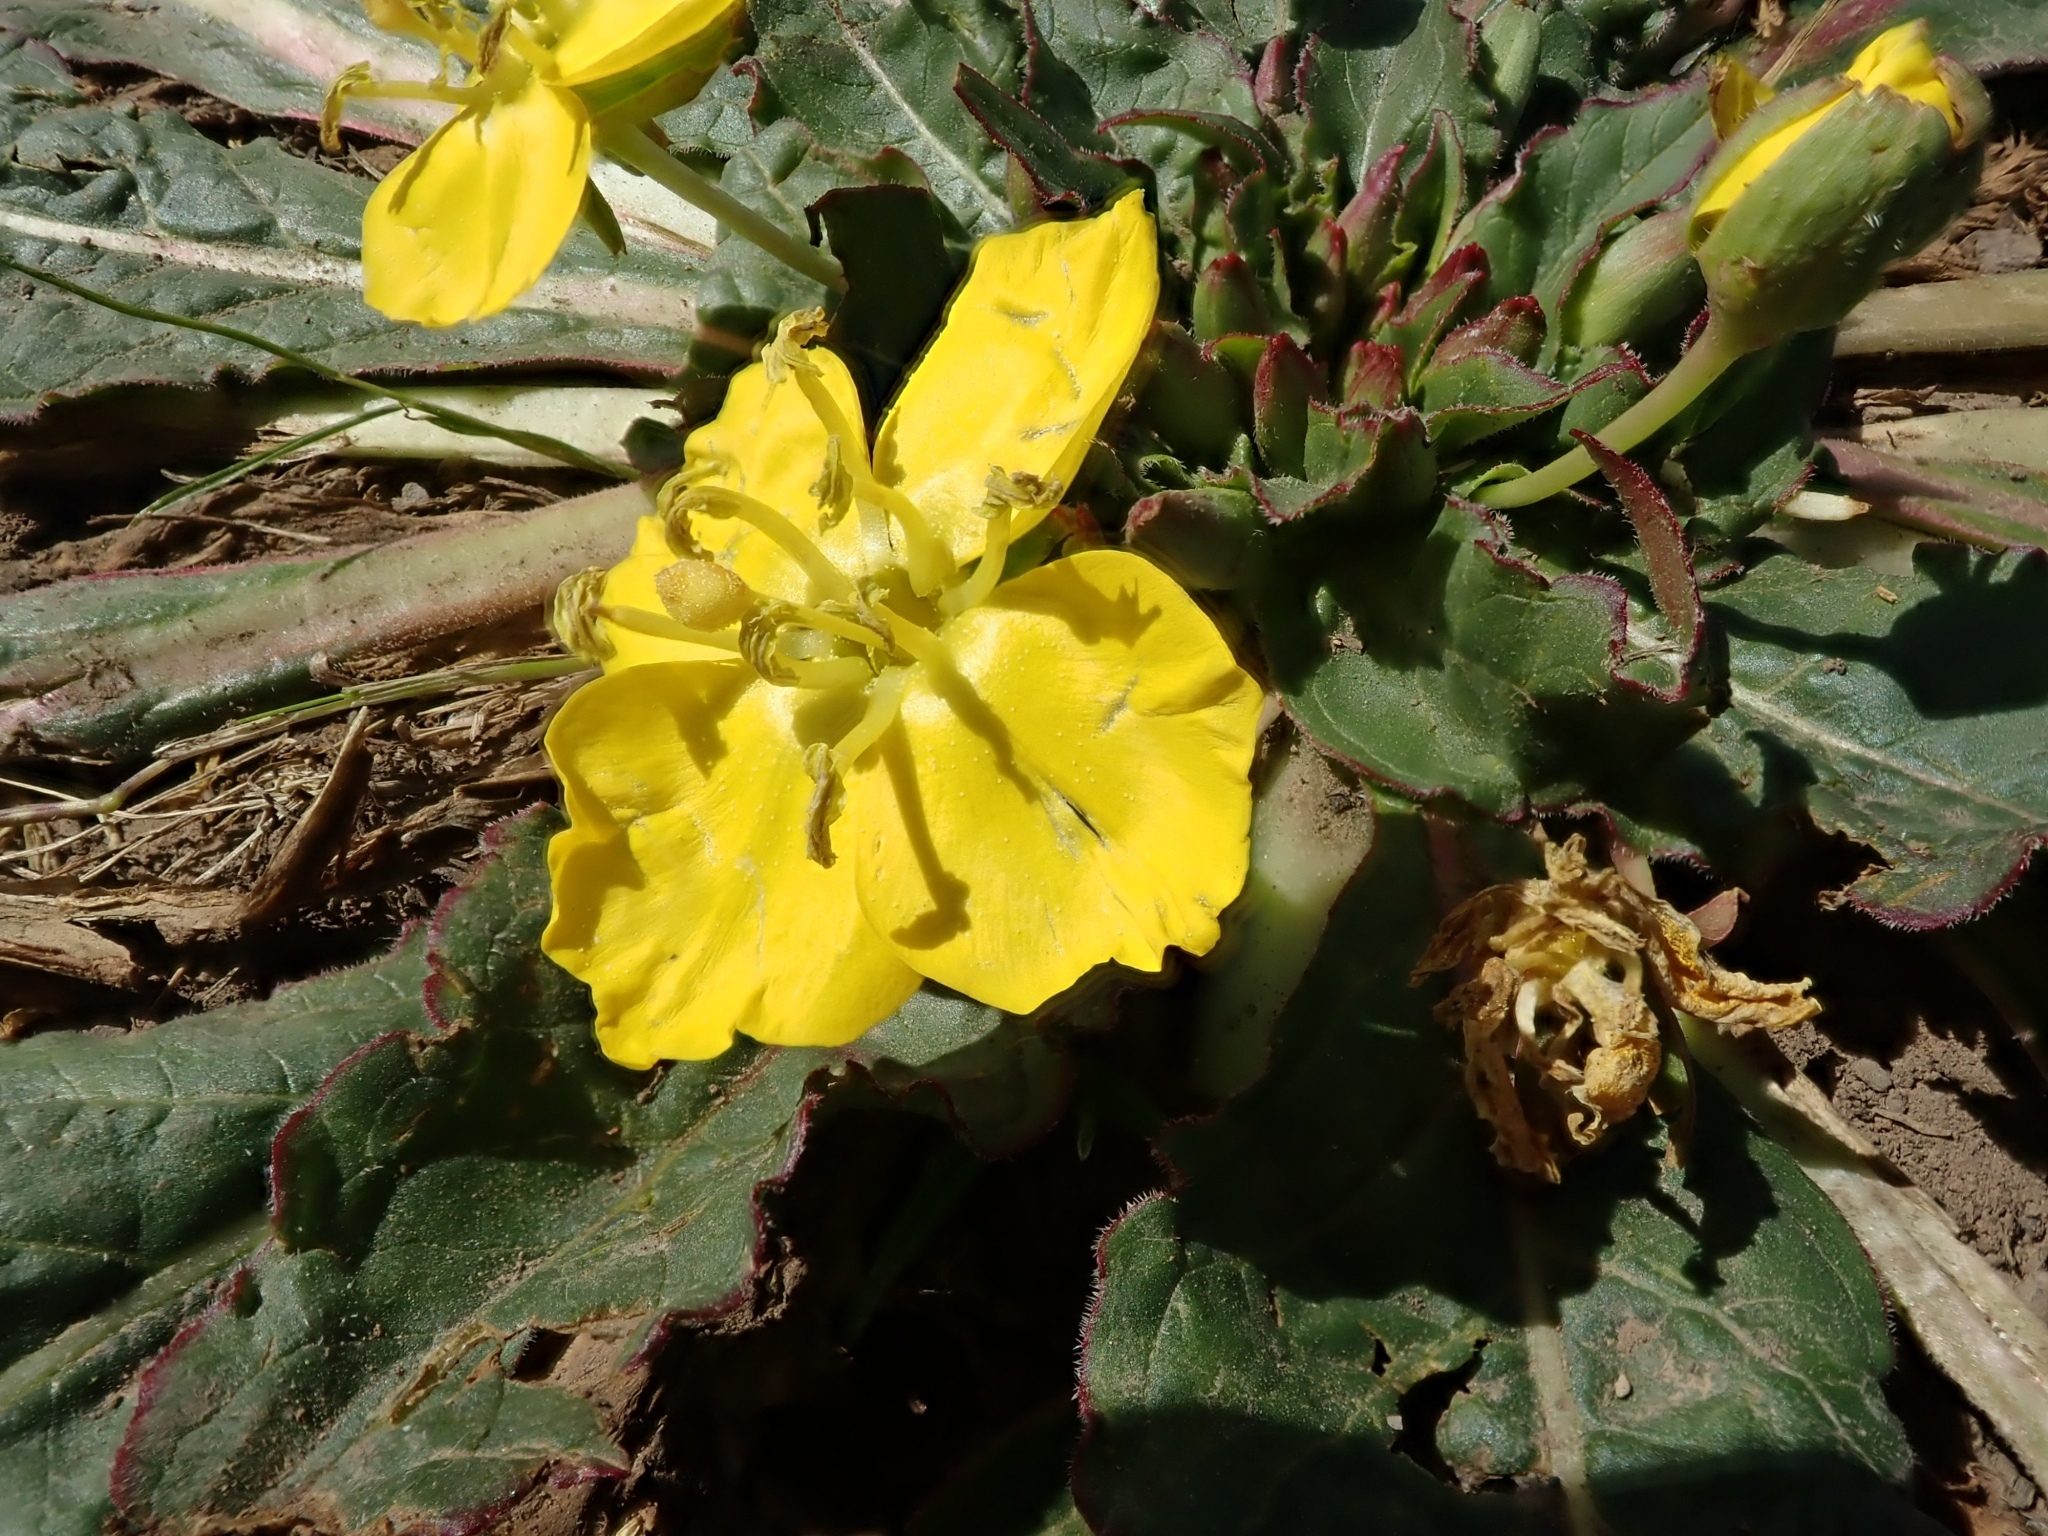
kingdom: Plantae
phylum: Tracheophyta
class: Magnoliopsida
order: Myrtales
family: Onagraceae
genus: Taraxia
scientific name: Taraxia ovata
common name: Goldeneggs
